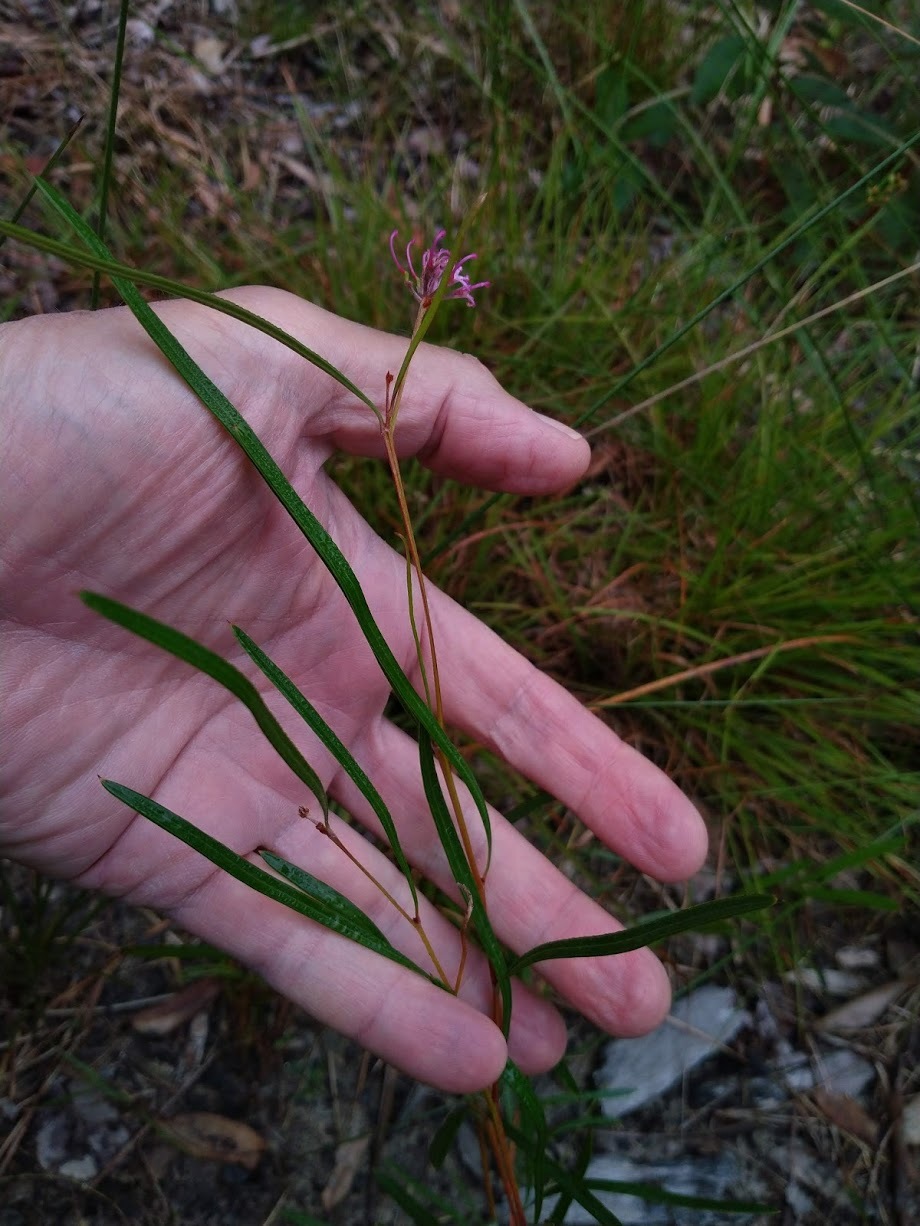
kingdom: Plantae
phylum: Tracheophyta
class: Magnoliopsida
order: Proteales
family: Proteaceae
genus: Grevillea
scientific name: Grevillea reptans
